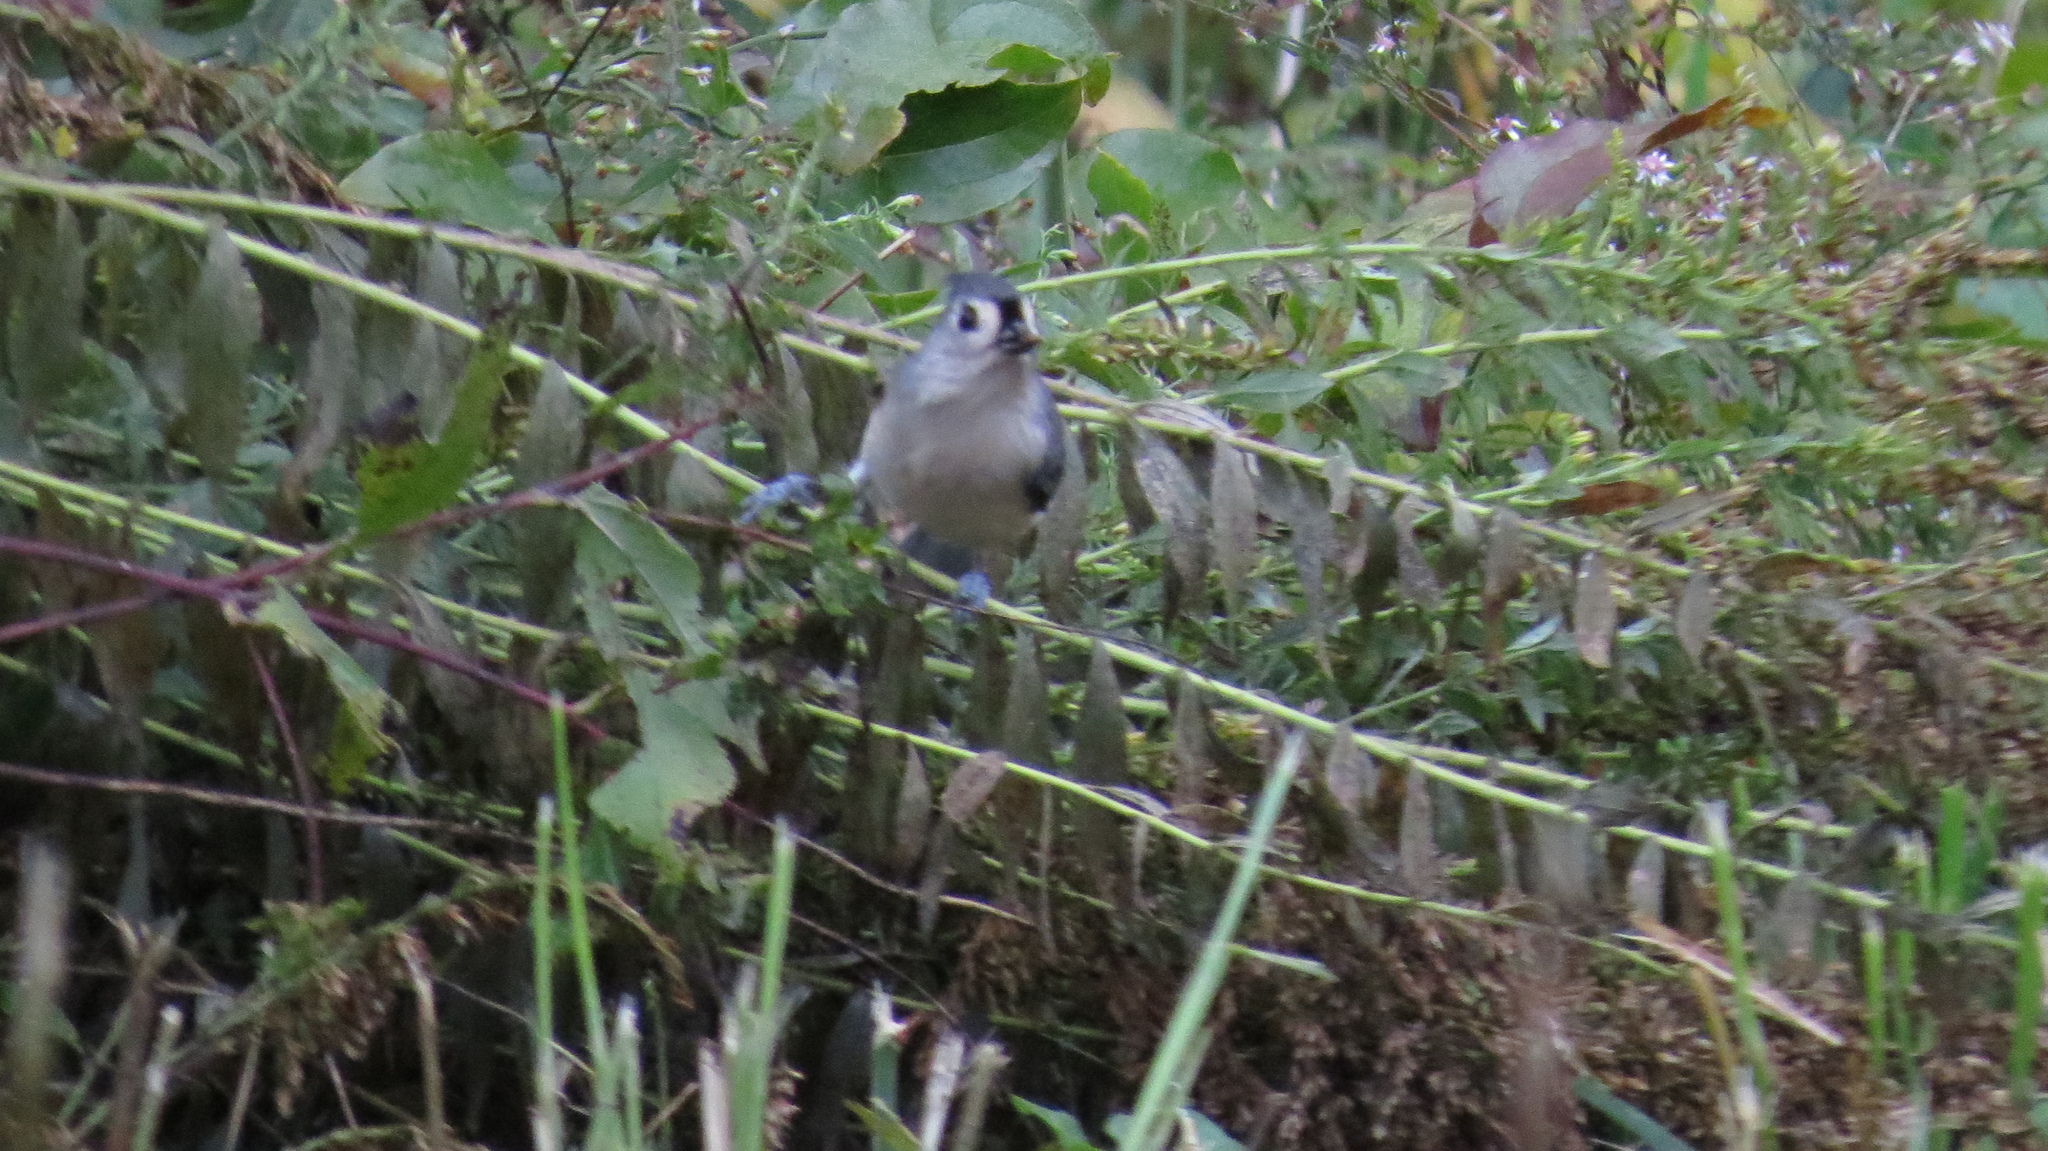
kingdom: Animalia
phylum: Chordata
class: Aves
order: Passeriformes
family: Paridae
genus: Baeolophus
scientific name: Baeolophus bicolor
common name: Tufted titmouse
